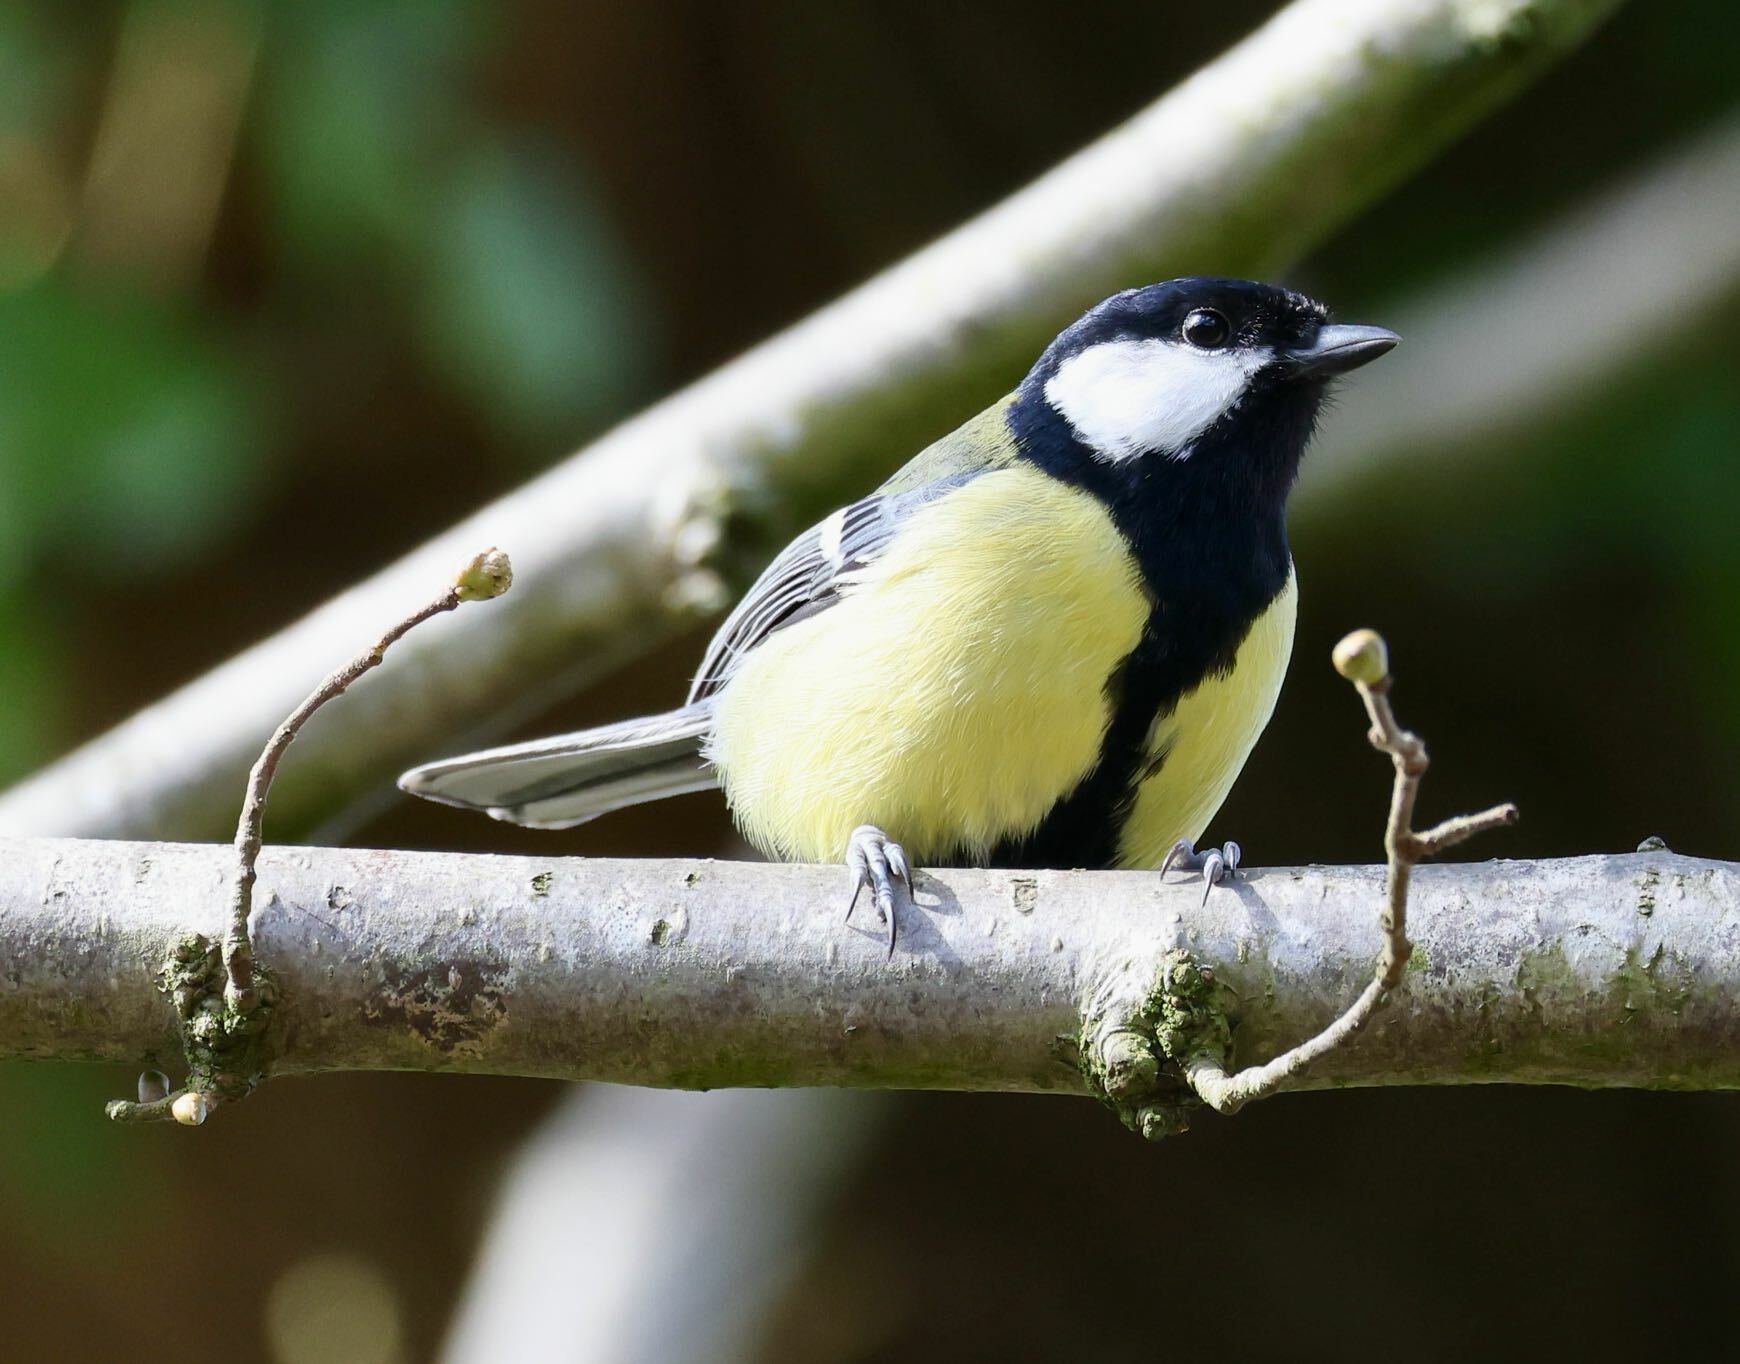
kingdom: Animalia
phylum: Chordata
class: Aves
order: Passeriformes
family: Paridae
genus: Parus
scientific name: Parus major
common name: Great tit
